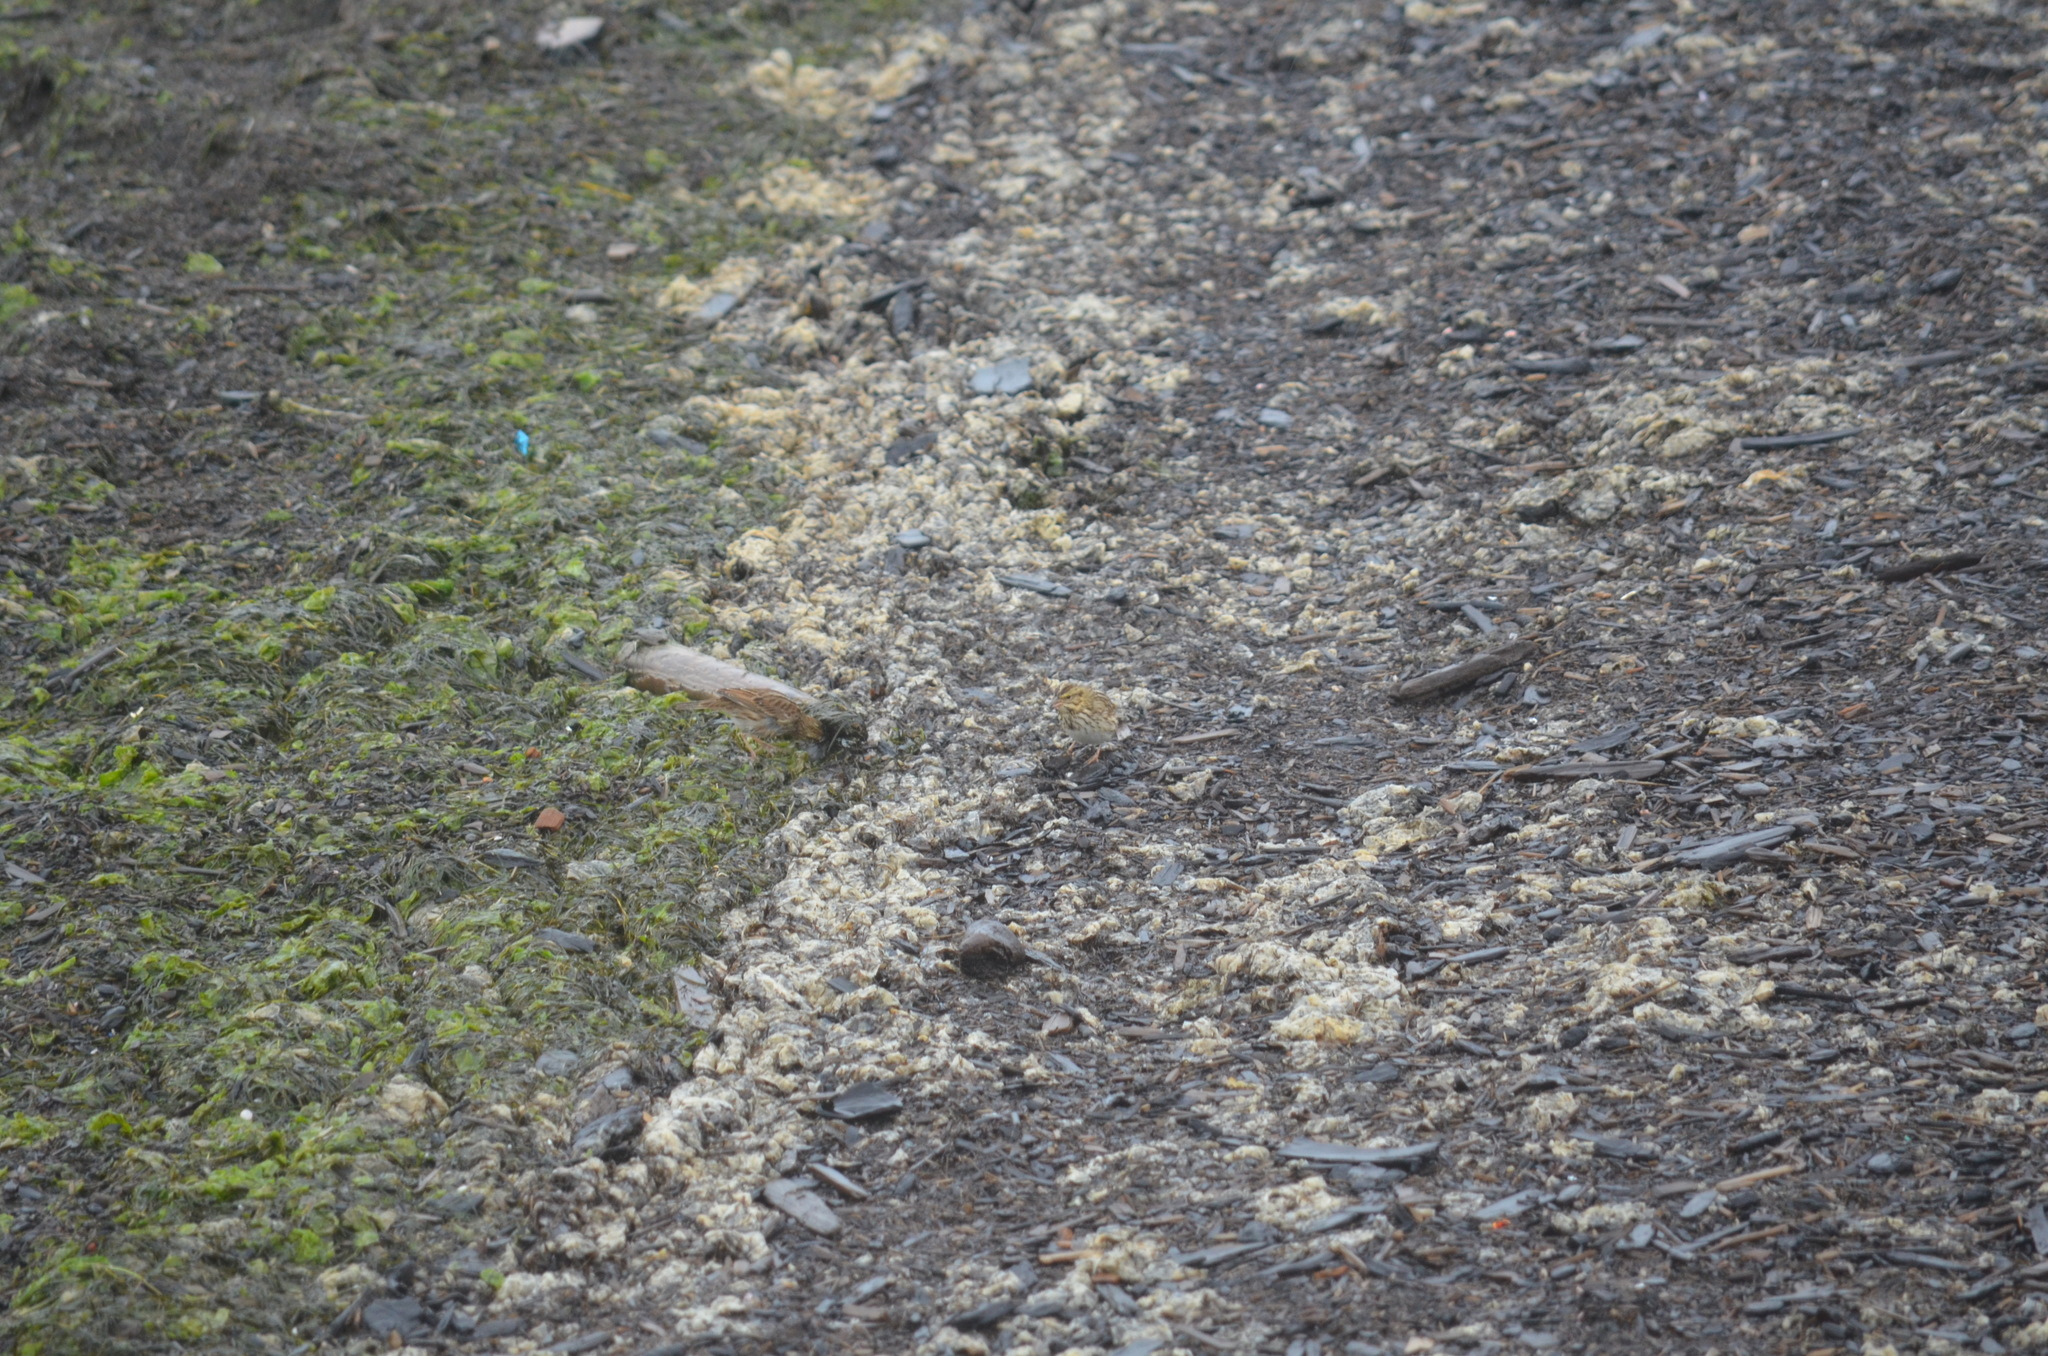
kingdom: Animalia
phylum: Chordata
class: Aves
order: Passeriformes
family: Passerellidae
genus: Passerculus
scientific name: Passerculus sandwichensis
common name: Savannah sparrow
